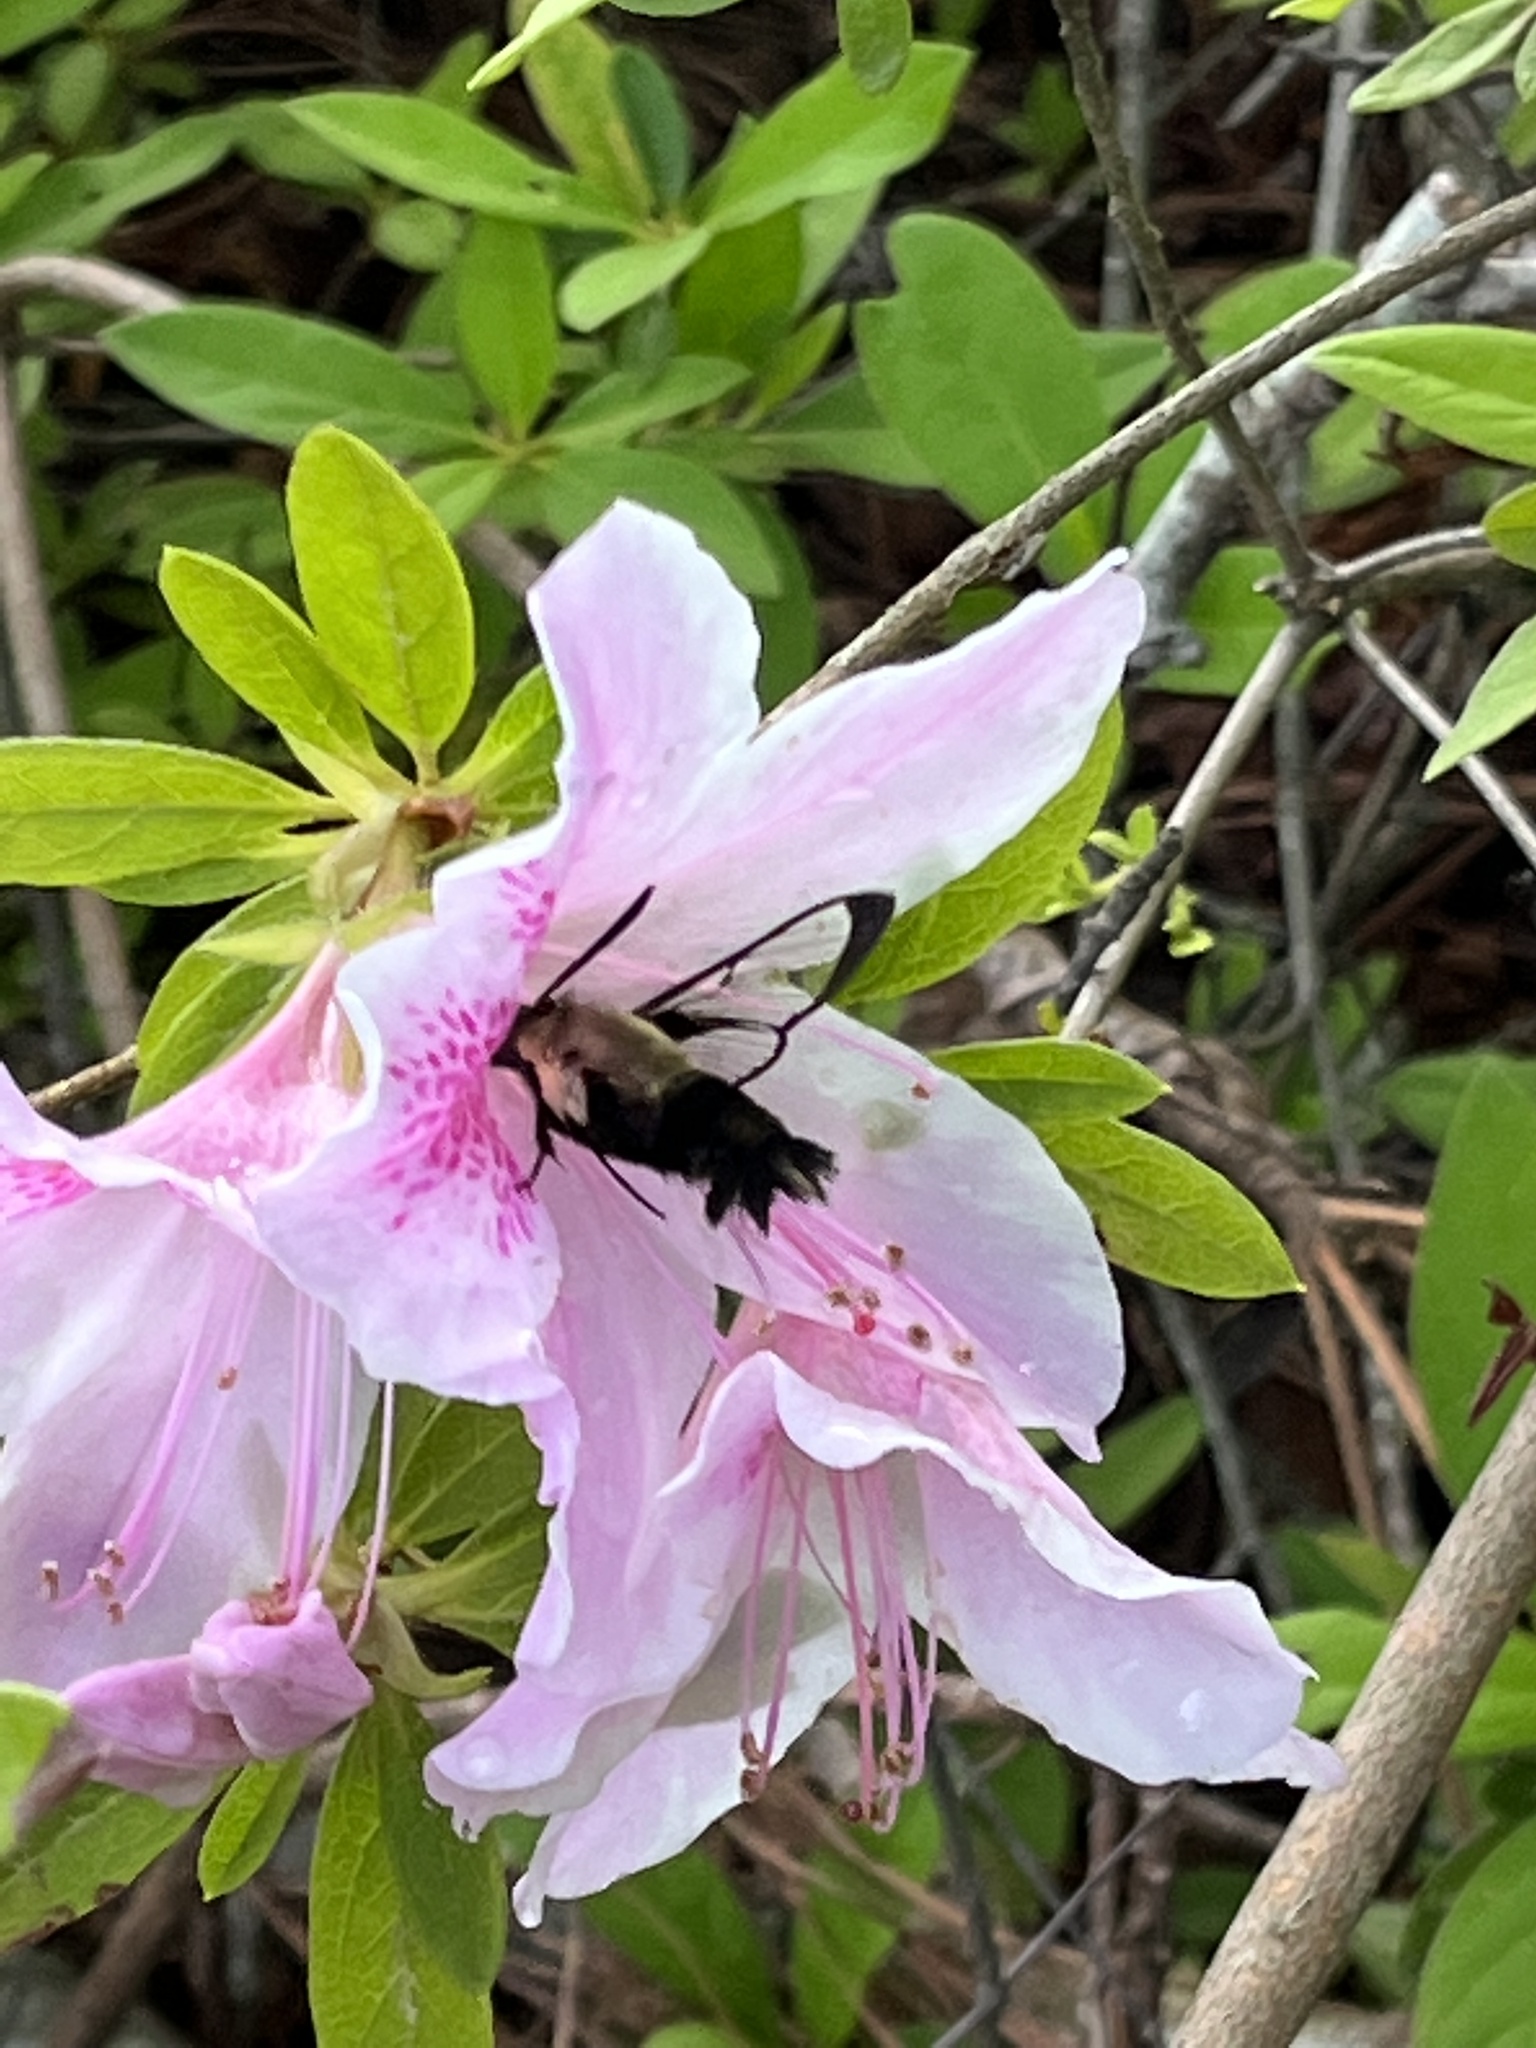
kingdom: Animalia
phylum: Arthropoda
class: Insecta
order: Lepidoptera
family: Sphingidae
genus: Hemaris
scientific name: Hemaris diffinis
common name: Bumblebee moth
